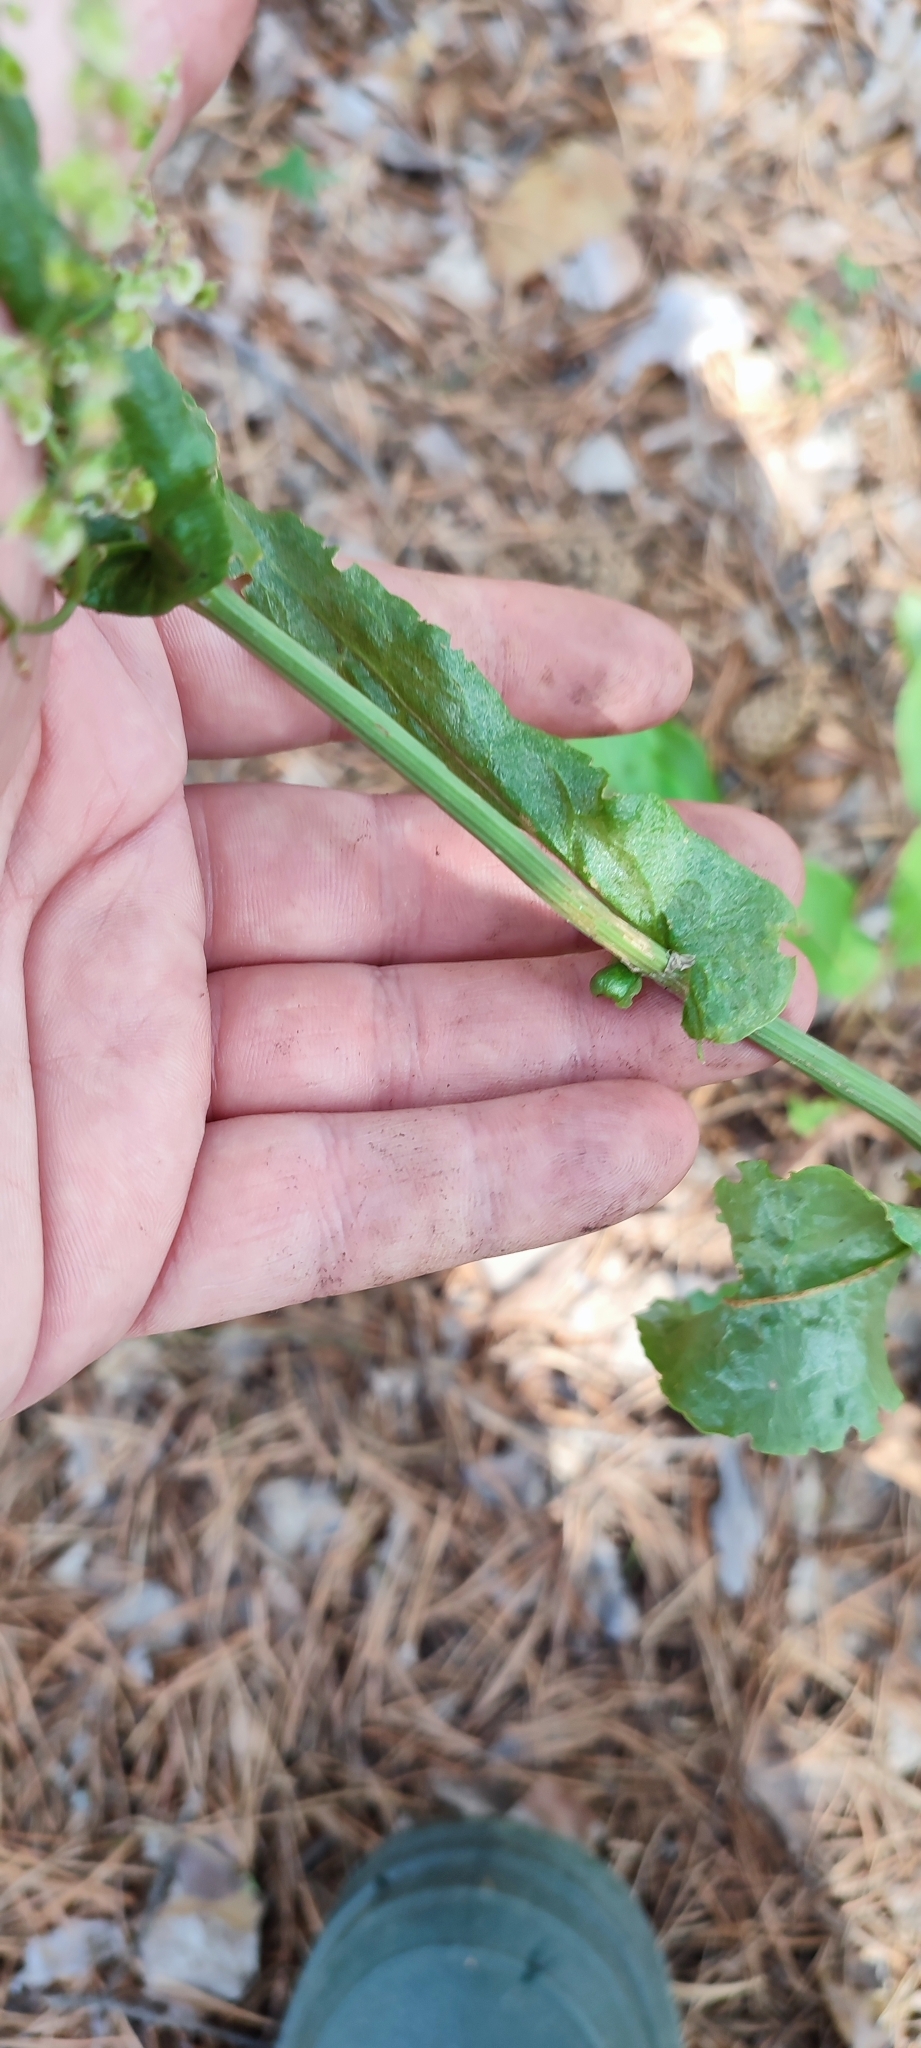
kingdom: Plantae
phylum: Tracheophyta
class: Magnoliopsida
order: Caryophyllales
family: Polygonaceae
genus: Rumex
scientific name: Rumex thyrsiflorus
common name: Garden sorrel
